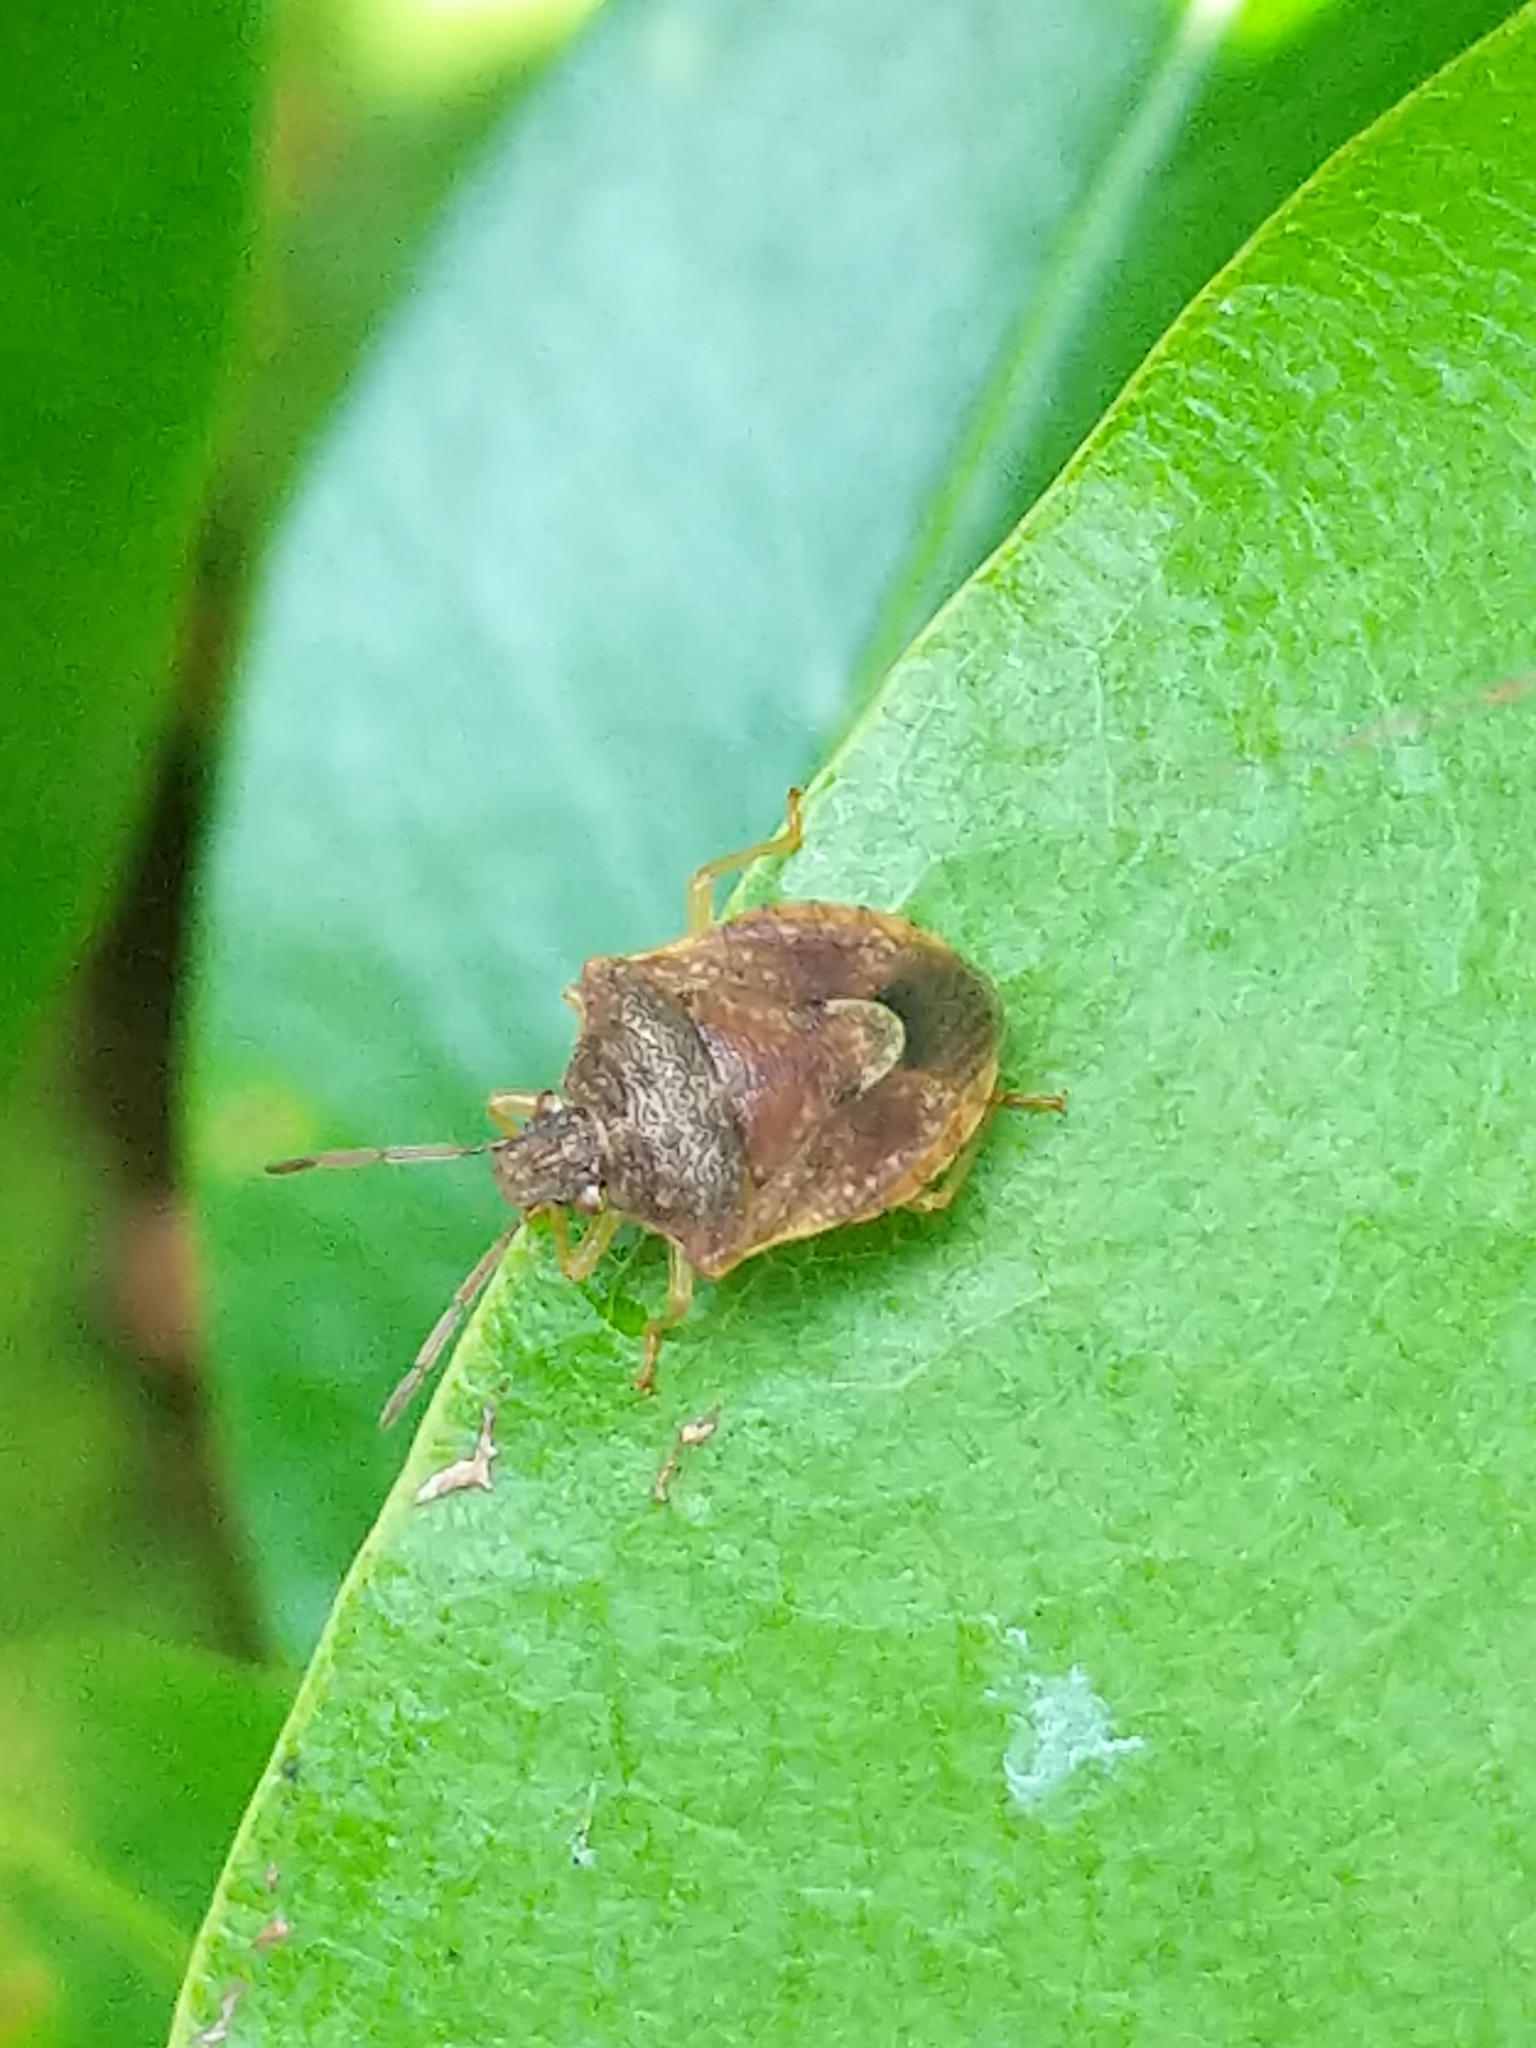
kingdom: Animalia
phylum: Arthropoda
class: Insecta
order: Hemiptera
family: Pentatomidae
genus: Dendrocoris
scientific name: Dendrocoris humeralis
